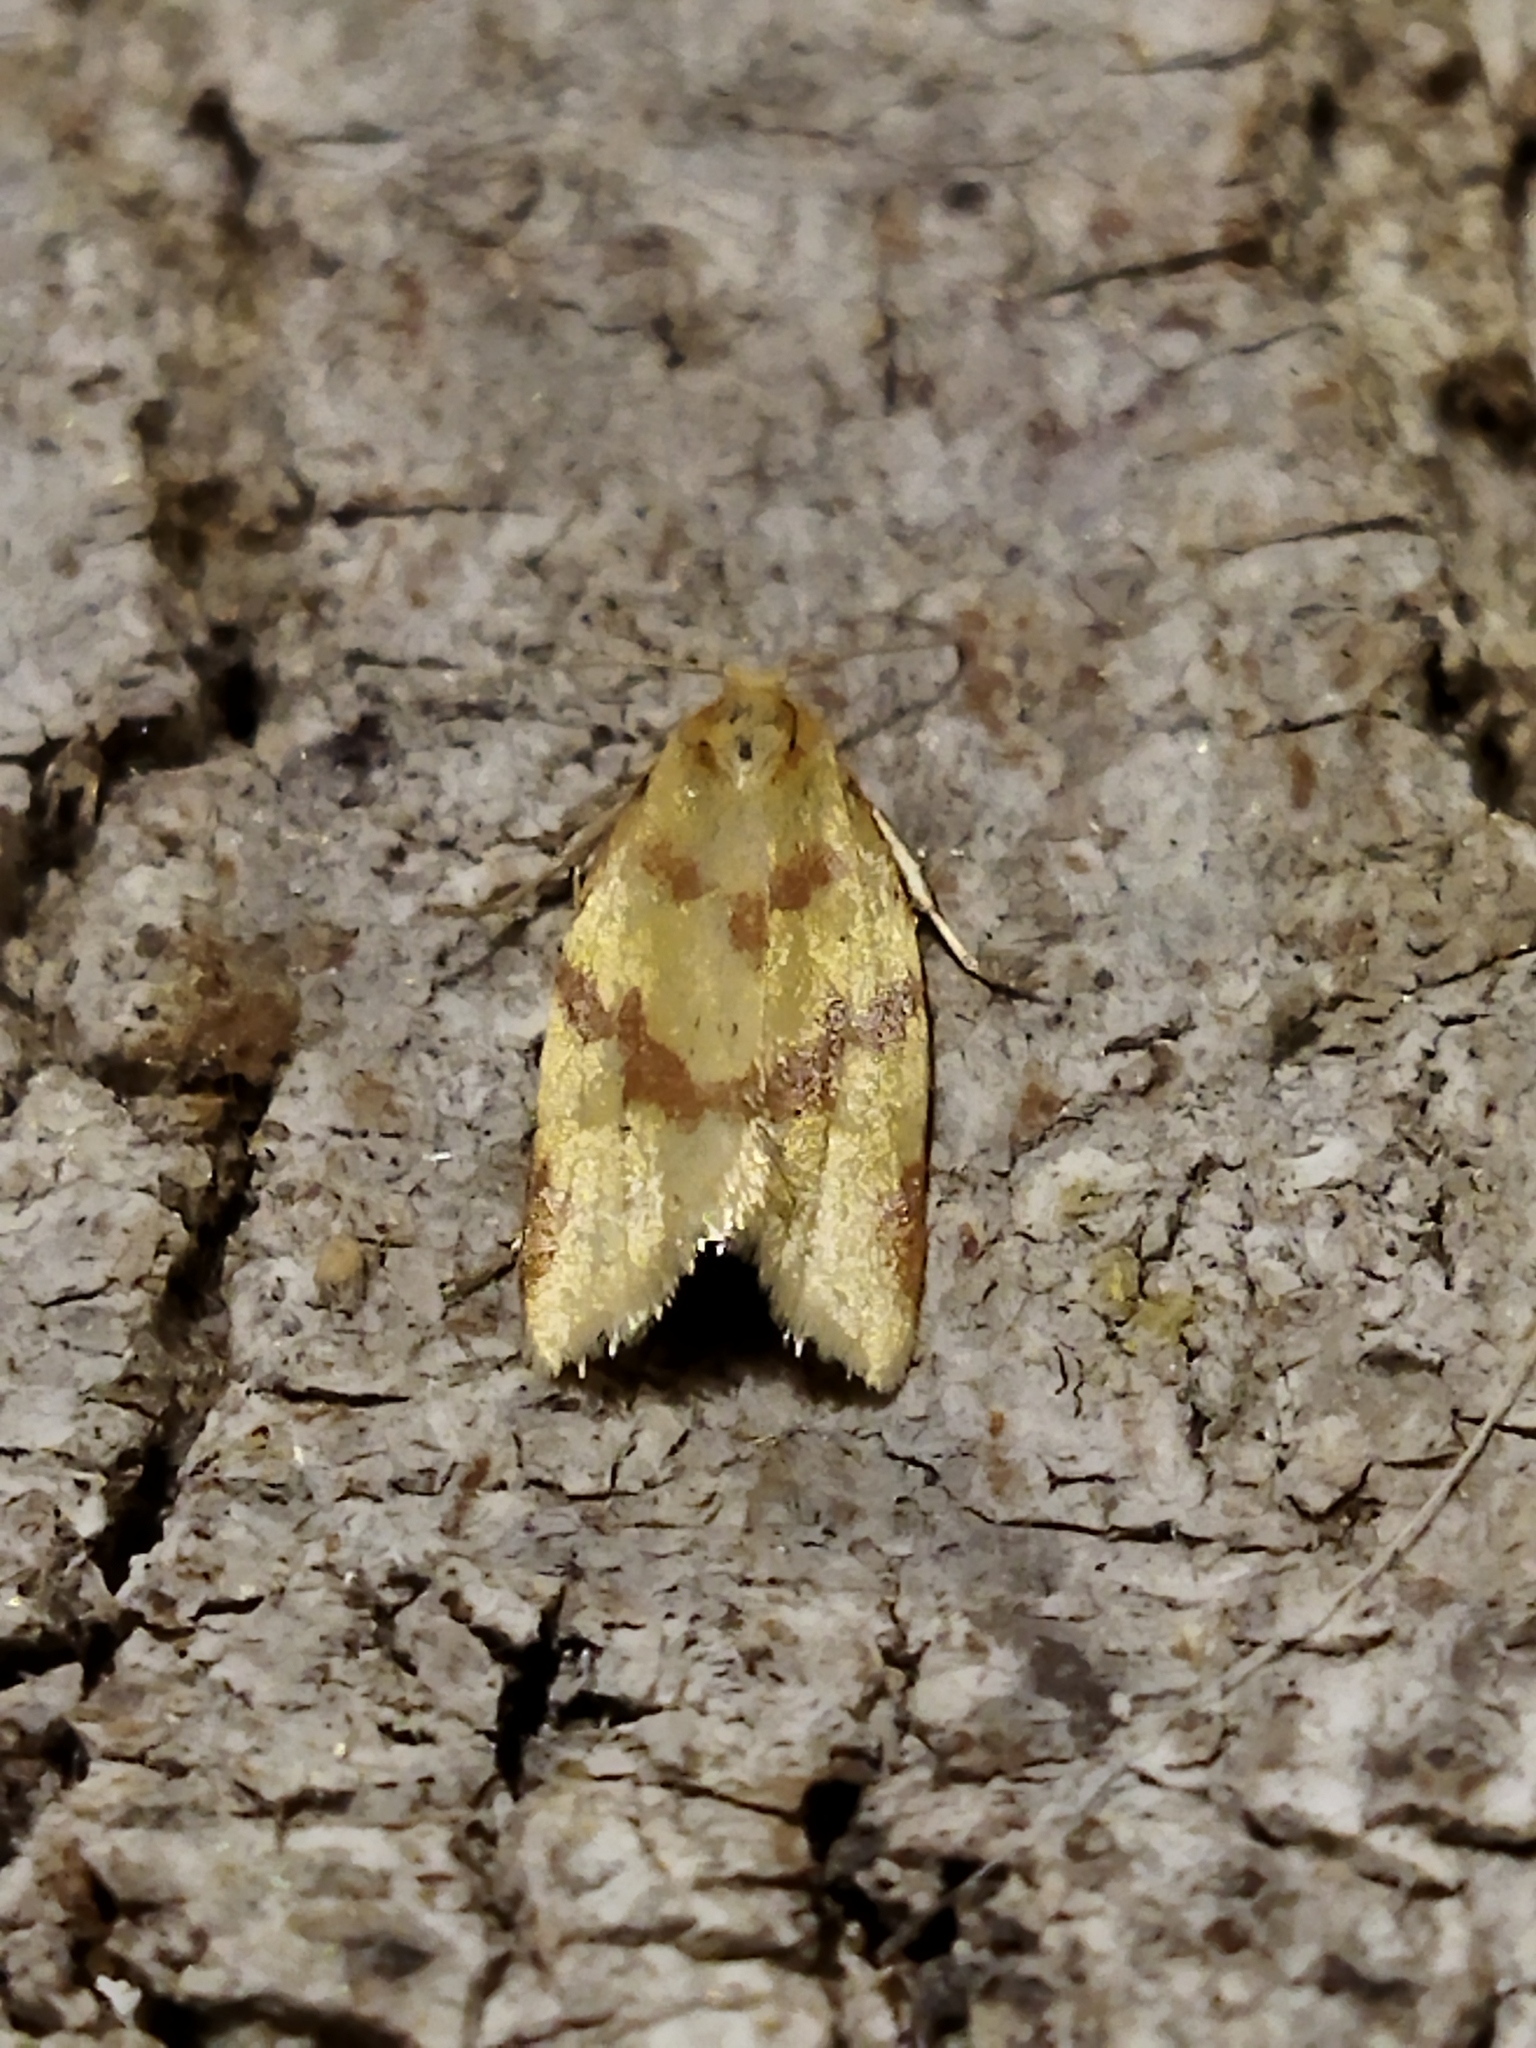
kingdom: Animalia
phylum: Arthropoda
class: Insecta
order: Lepidoptera
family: Tortricidae
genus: Clepsis
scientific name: Clepsis pallidana
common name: Sheep's-bit conch
